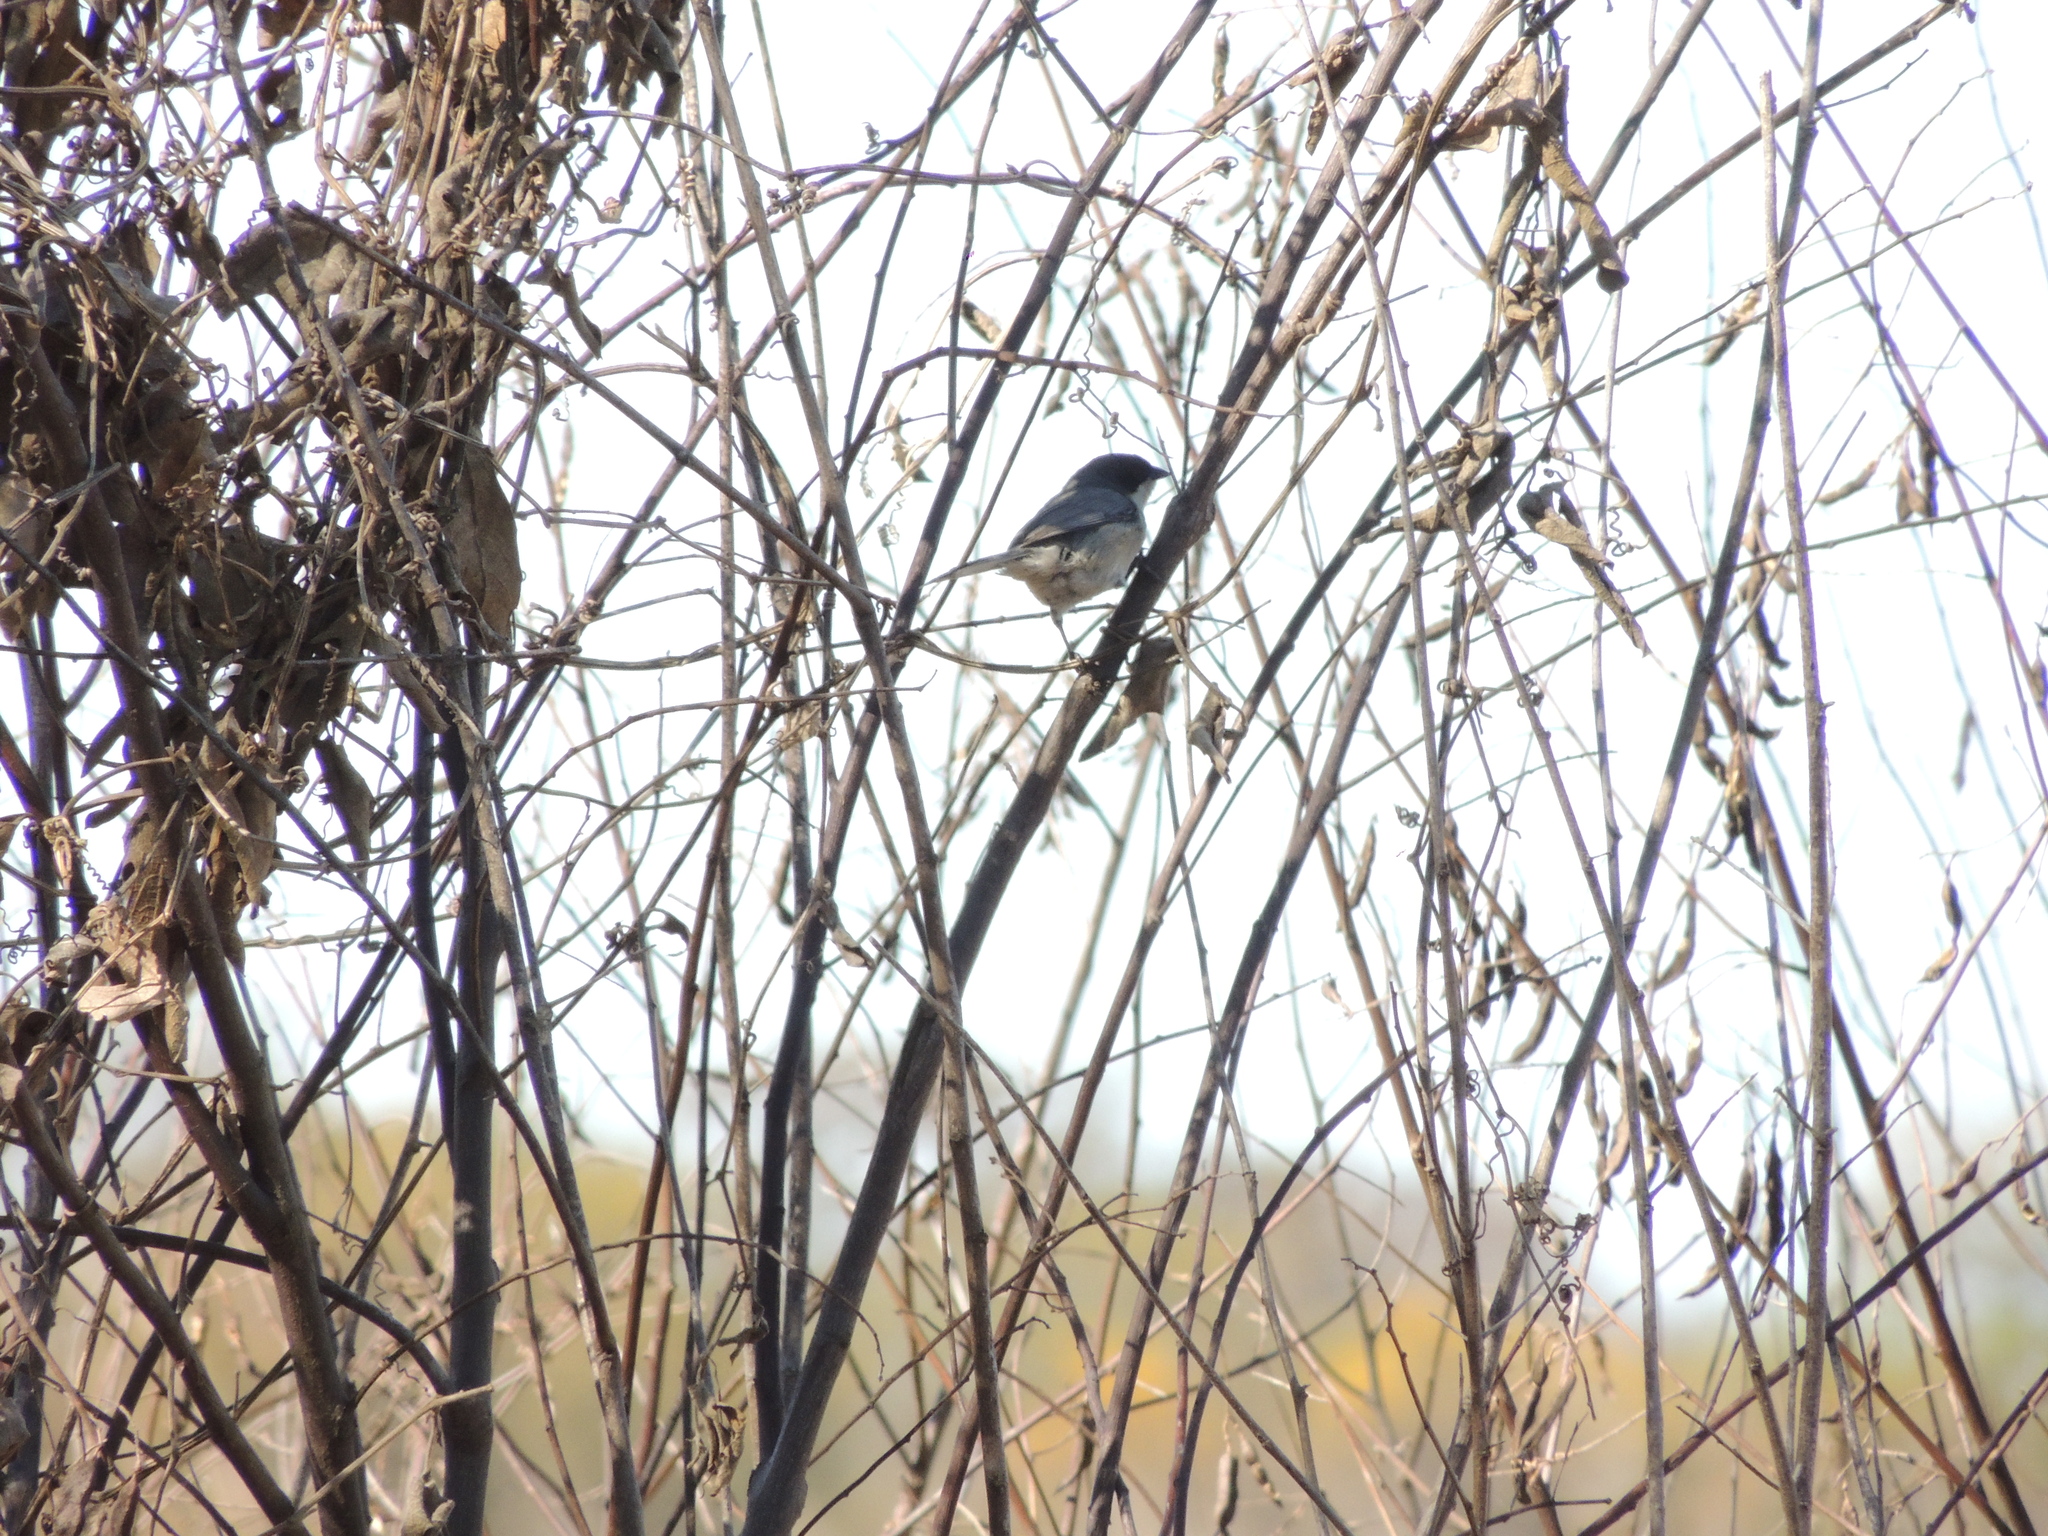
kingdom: Animalia
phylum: Chordata
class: Aves
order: Passeriformes
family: Thraupidae
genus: Microspingus
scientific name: Microspingus melanoleucus
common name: Black-capped warbling-finch
